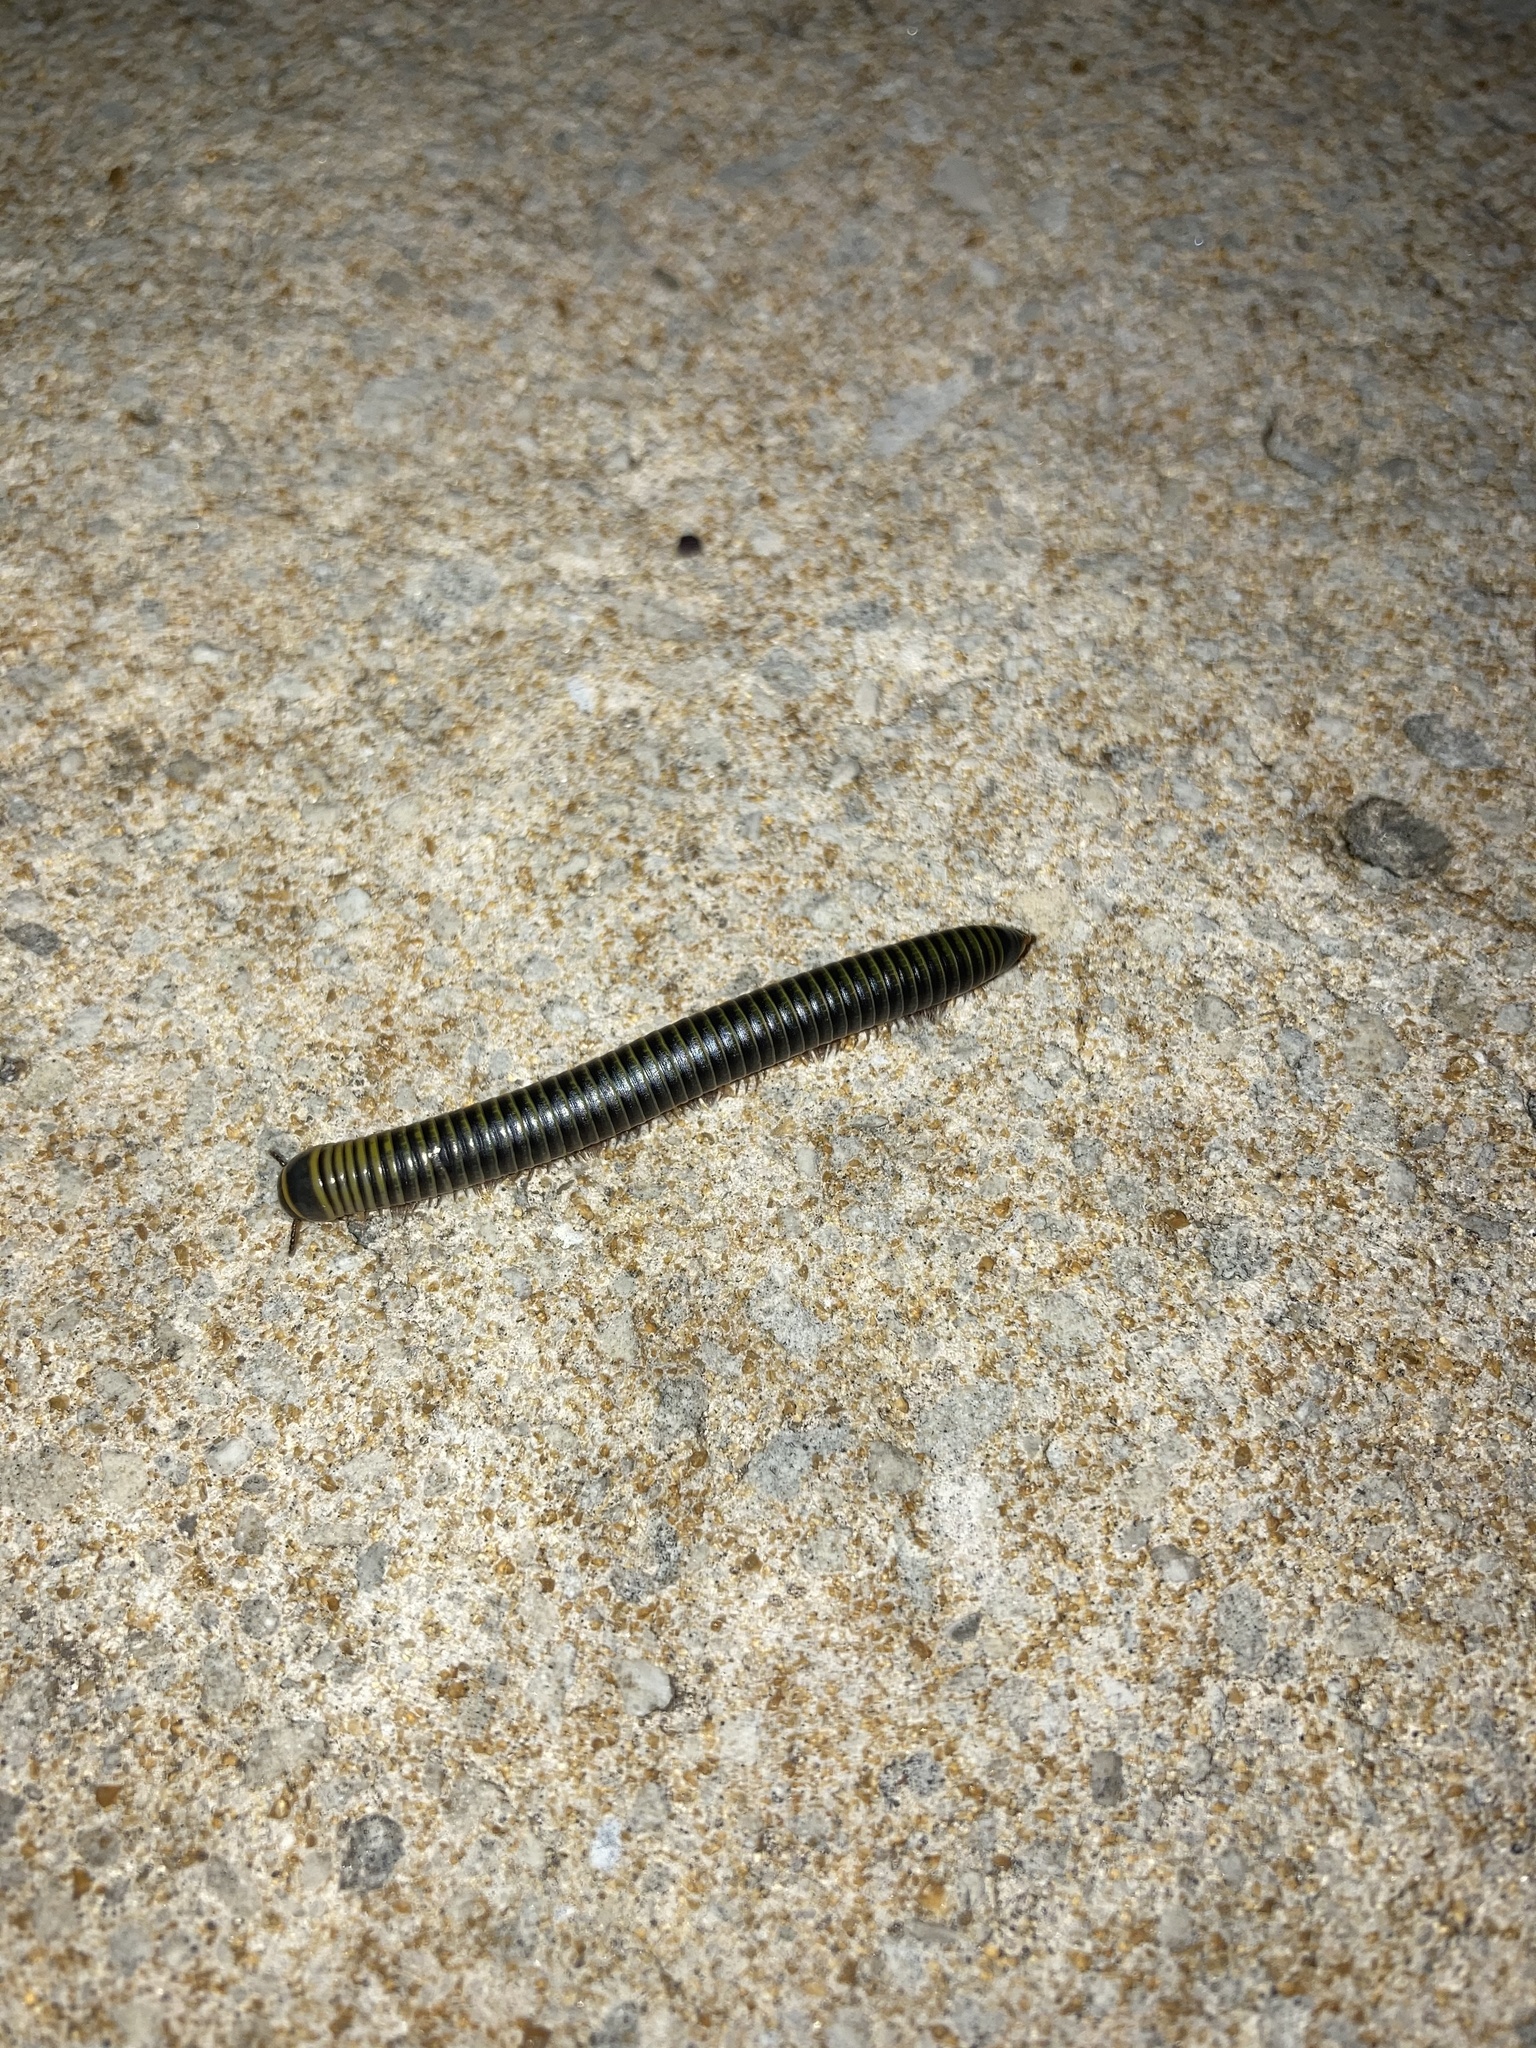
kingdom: Animalia
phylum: Arthropoda
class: Diplopoda
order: Spirobolida
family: Rhinocricidae
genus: Anadenobolus
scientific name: Anadenobolus monilicornis
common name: Caribbean millipede
